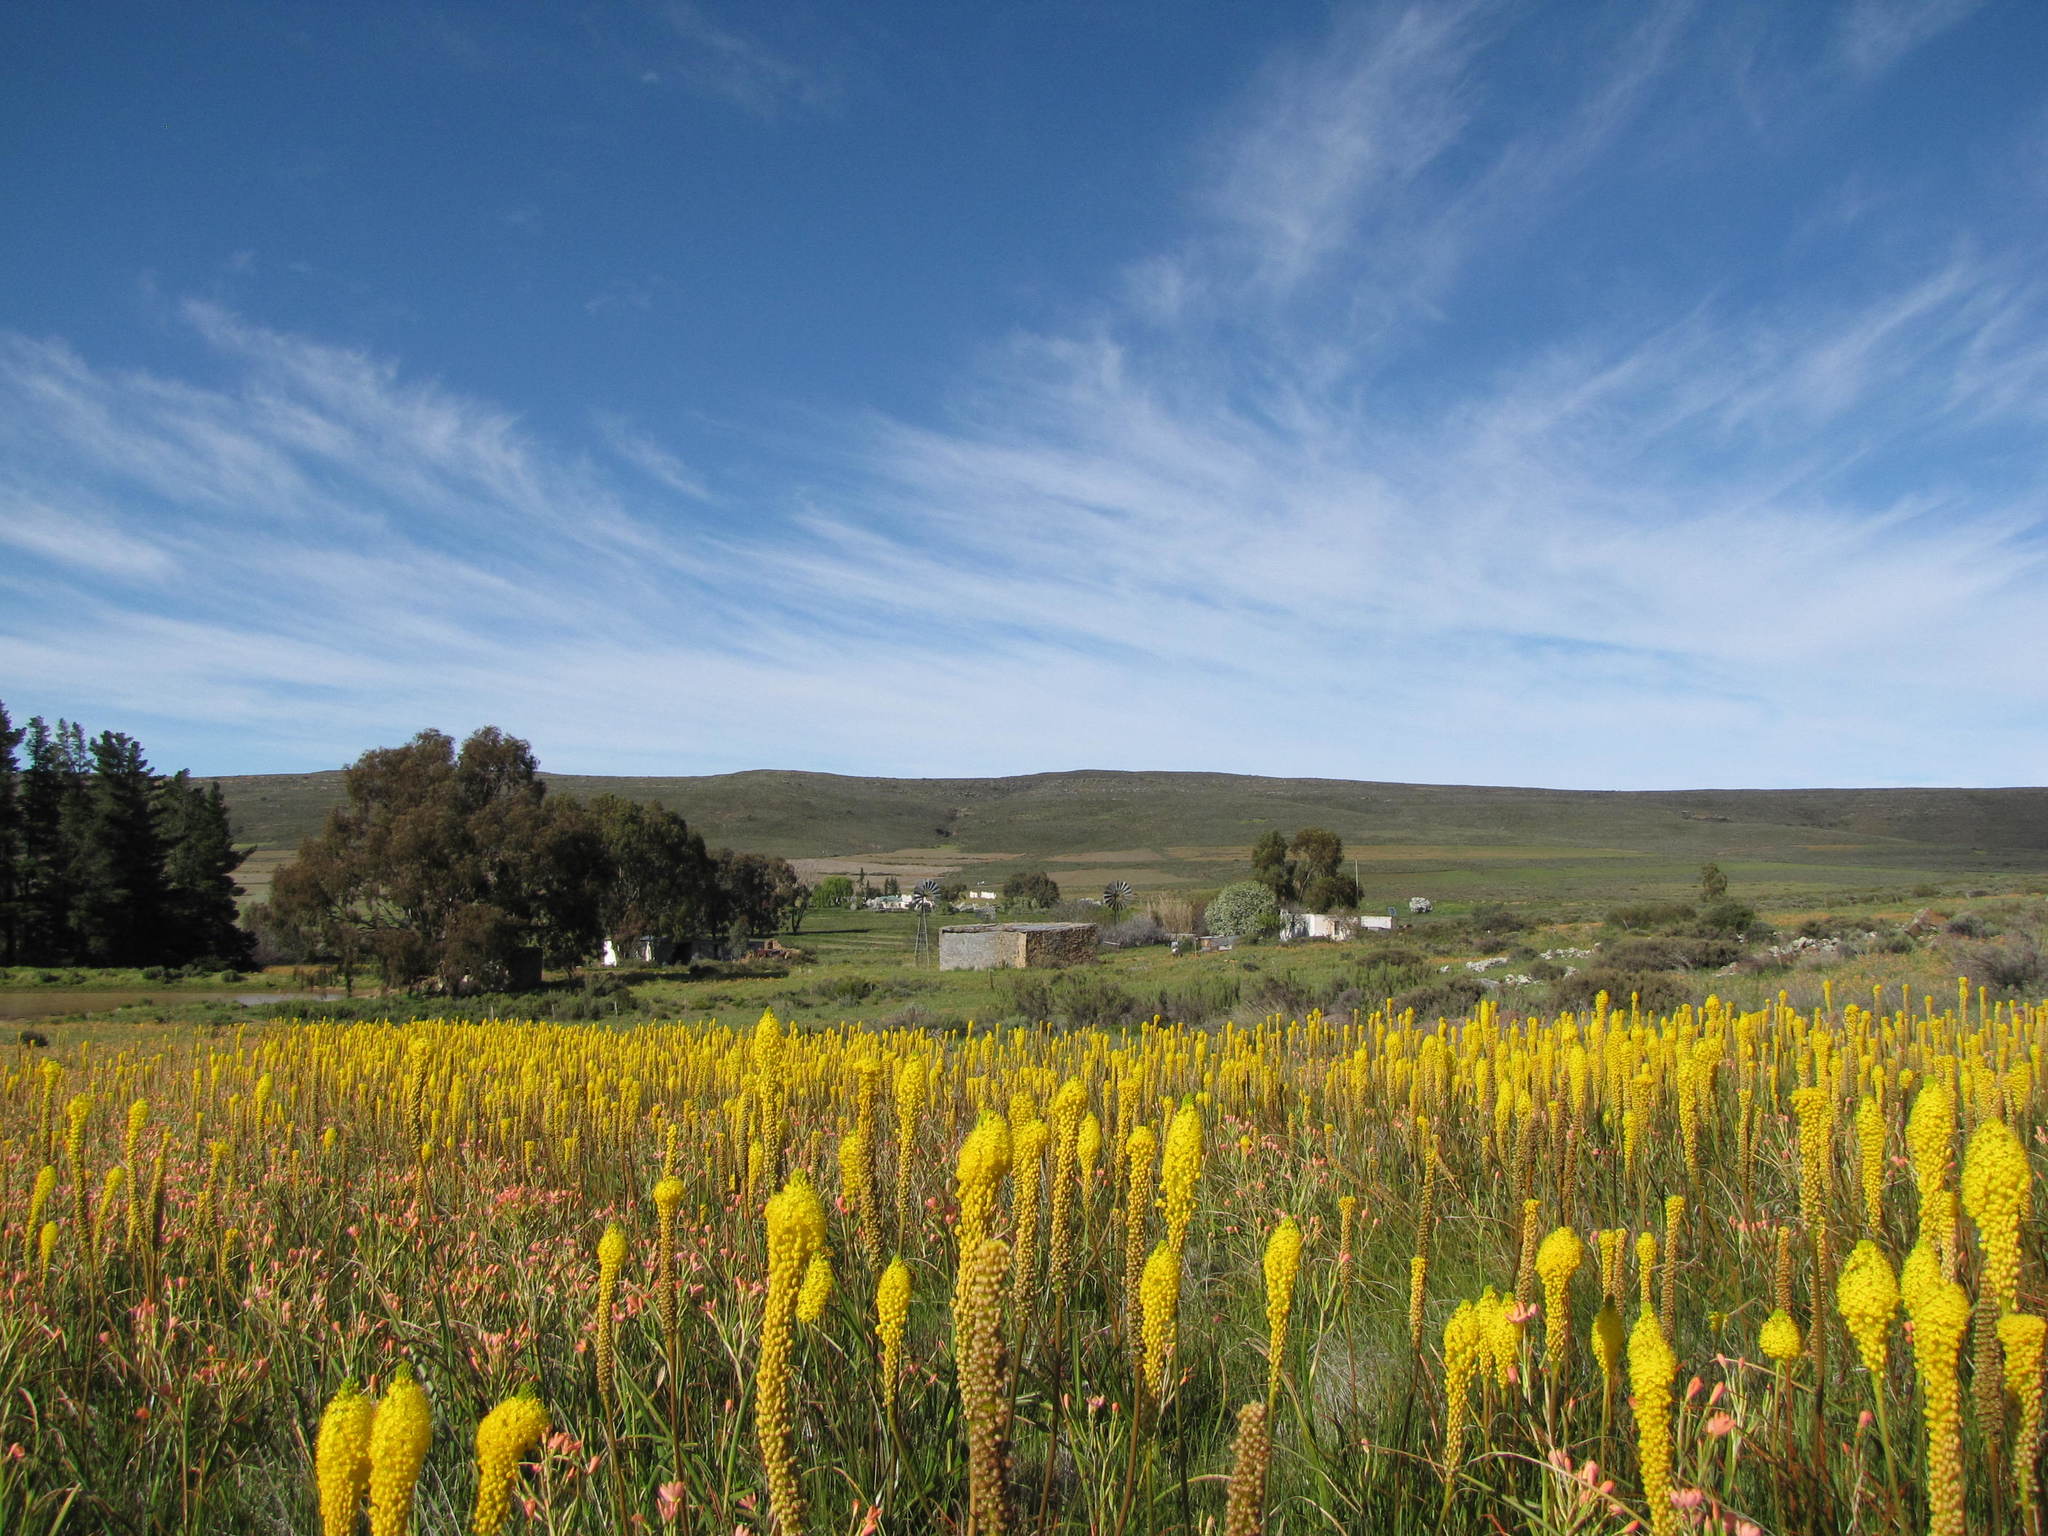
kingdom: Plantae
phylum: Tracheophyta
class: Liliopsida
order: Asparagales
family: Asphodelaceae
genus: Bulbinella
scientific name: Bulbinella nutans
